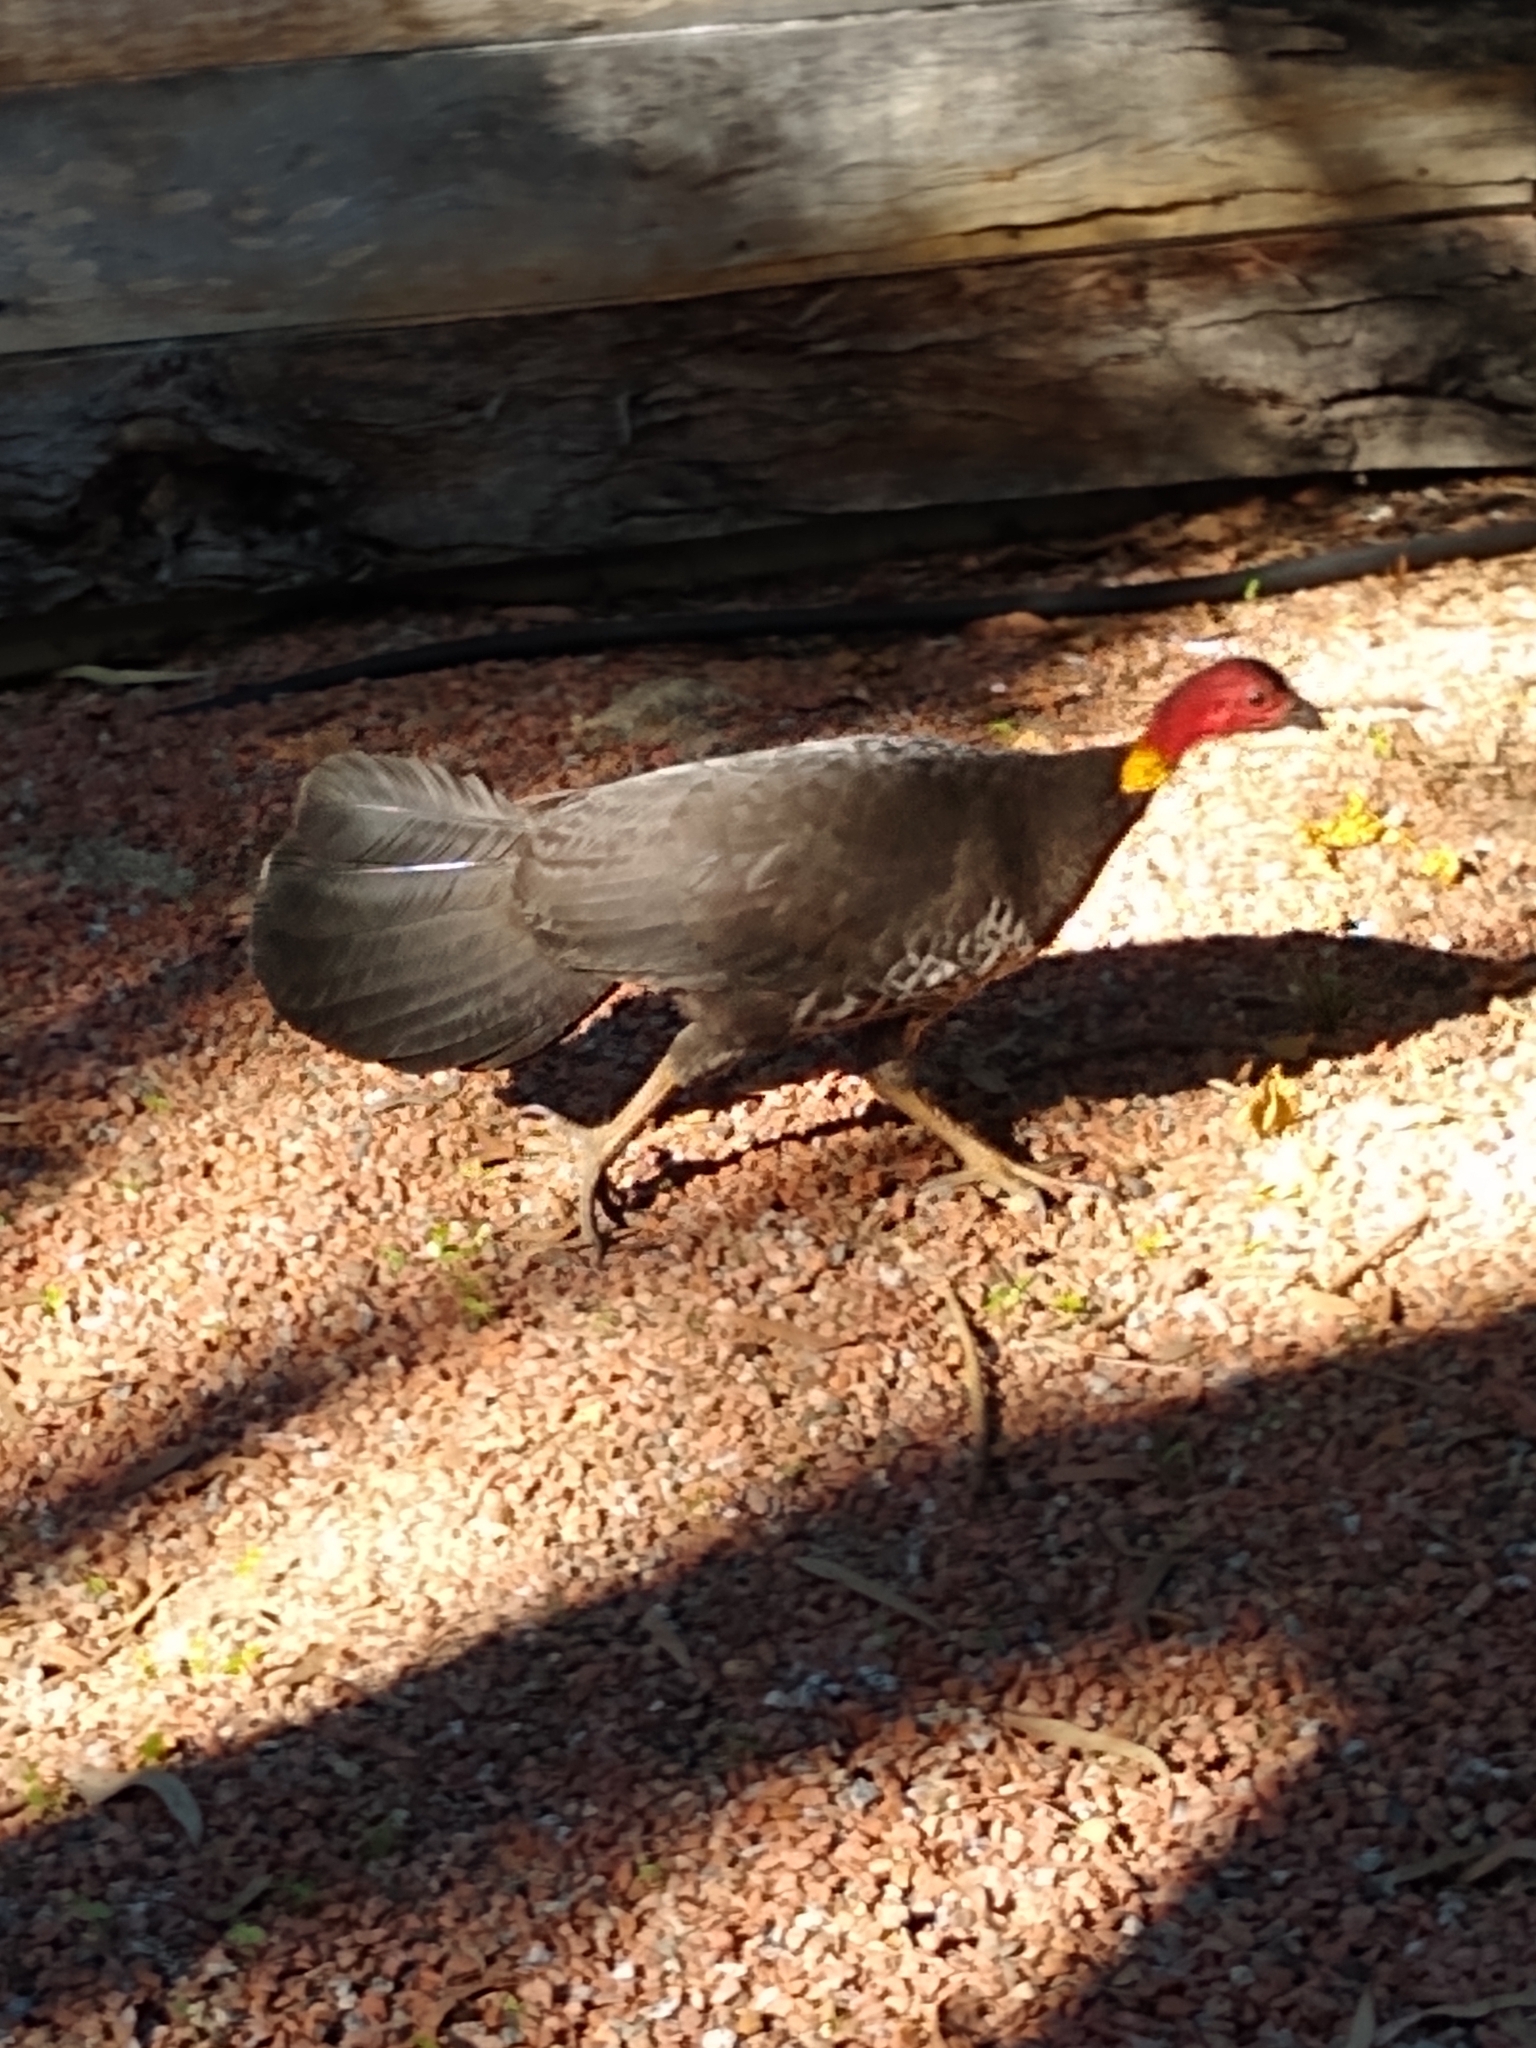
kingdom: Animalia
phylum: Chordata
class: Aves
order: Galliformes
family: Megapodiidae
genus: Alectura
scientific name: Alectura lathami
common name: Australian brushturkey
